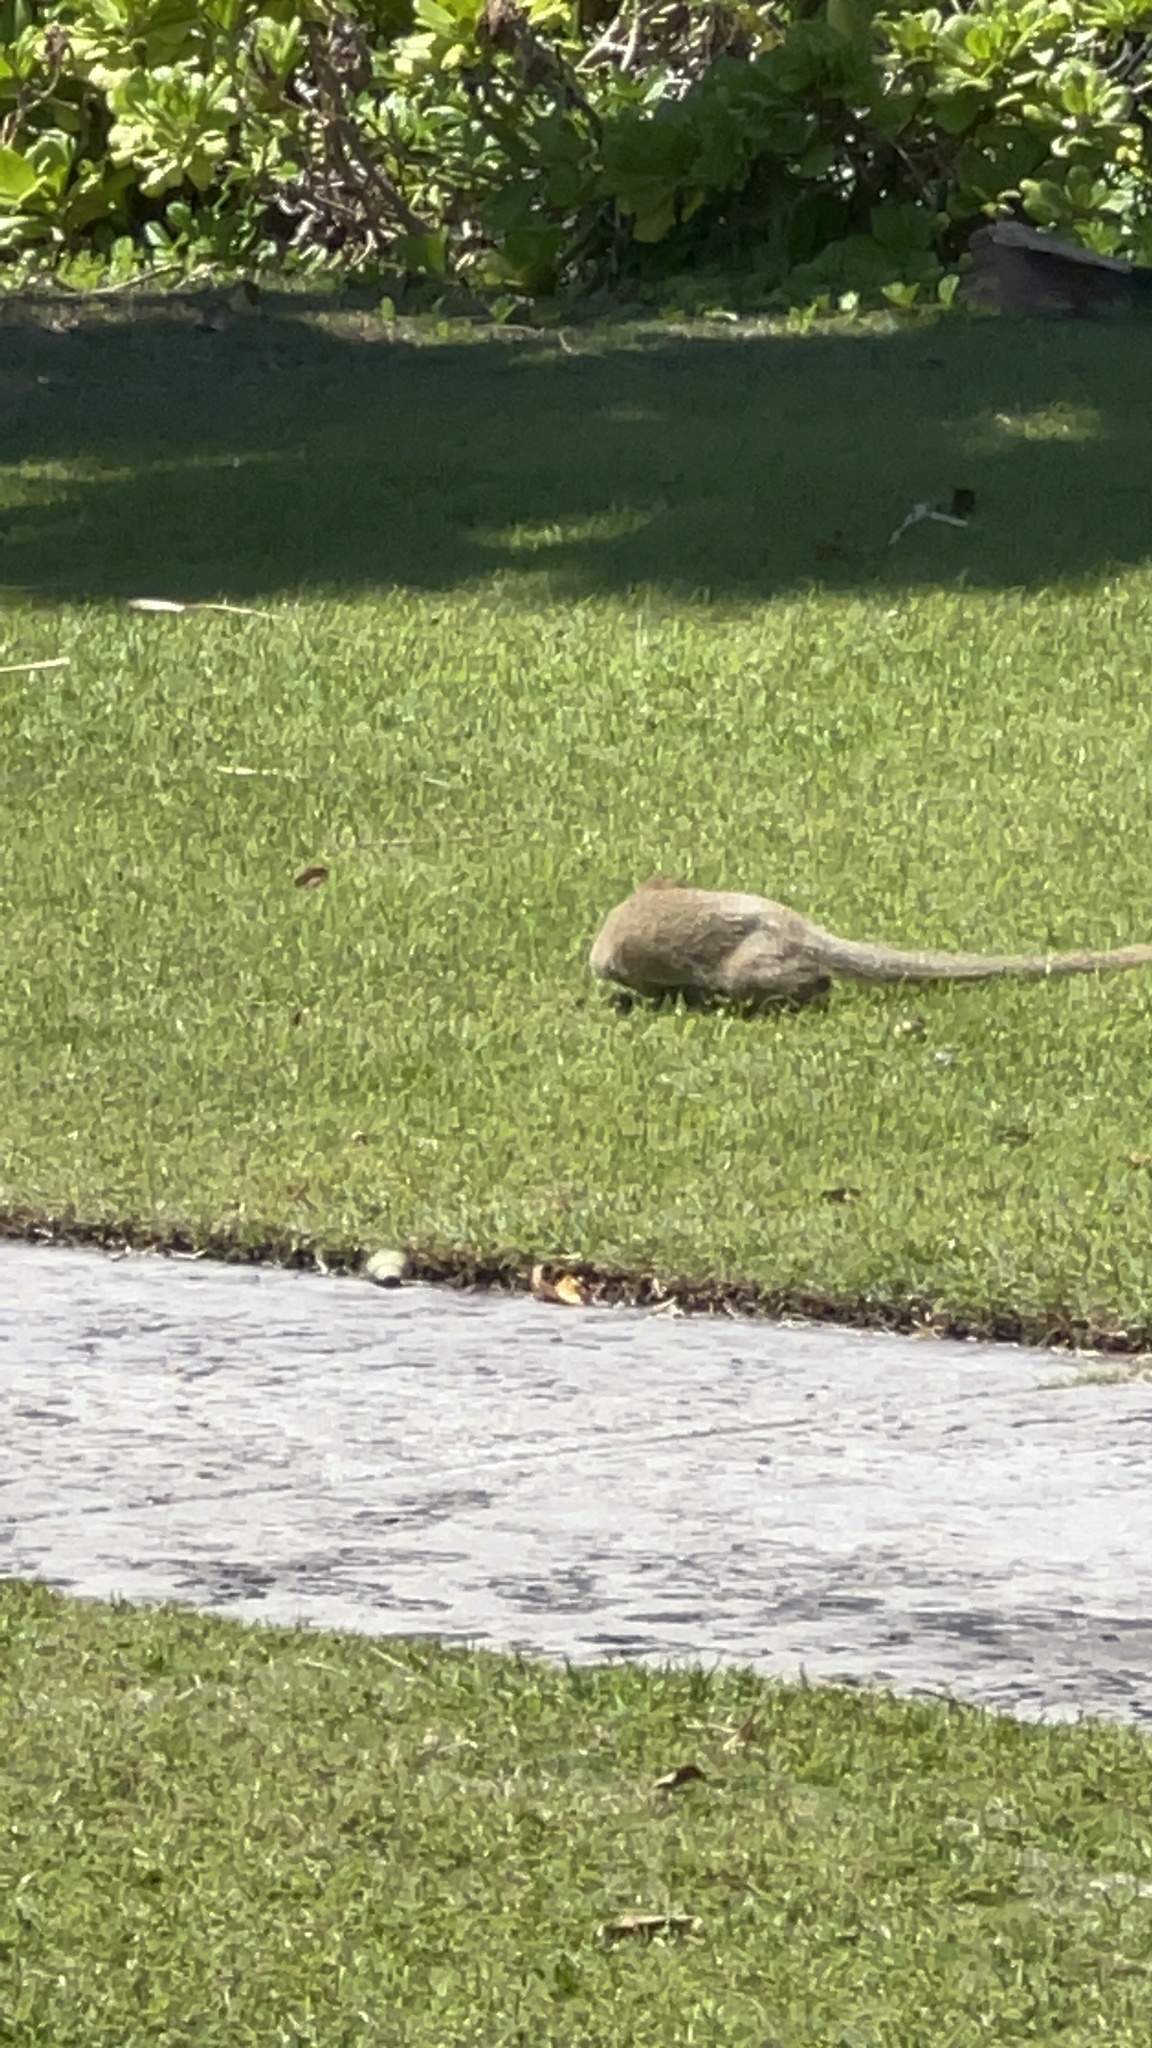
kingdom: Animalia
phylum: Chordata
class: Mammalia
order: Carnivora
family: Herpestidae
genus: Herpestes
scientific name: Herpestes javanicus
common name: Small asian mongoose
